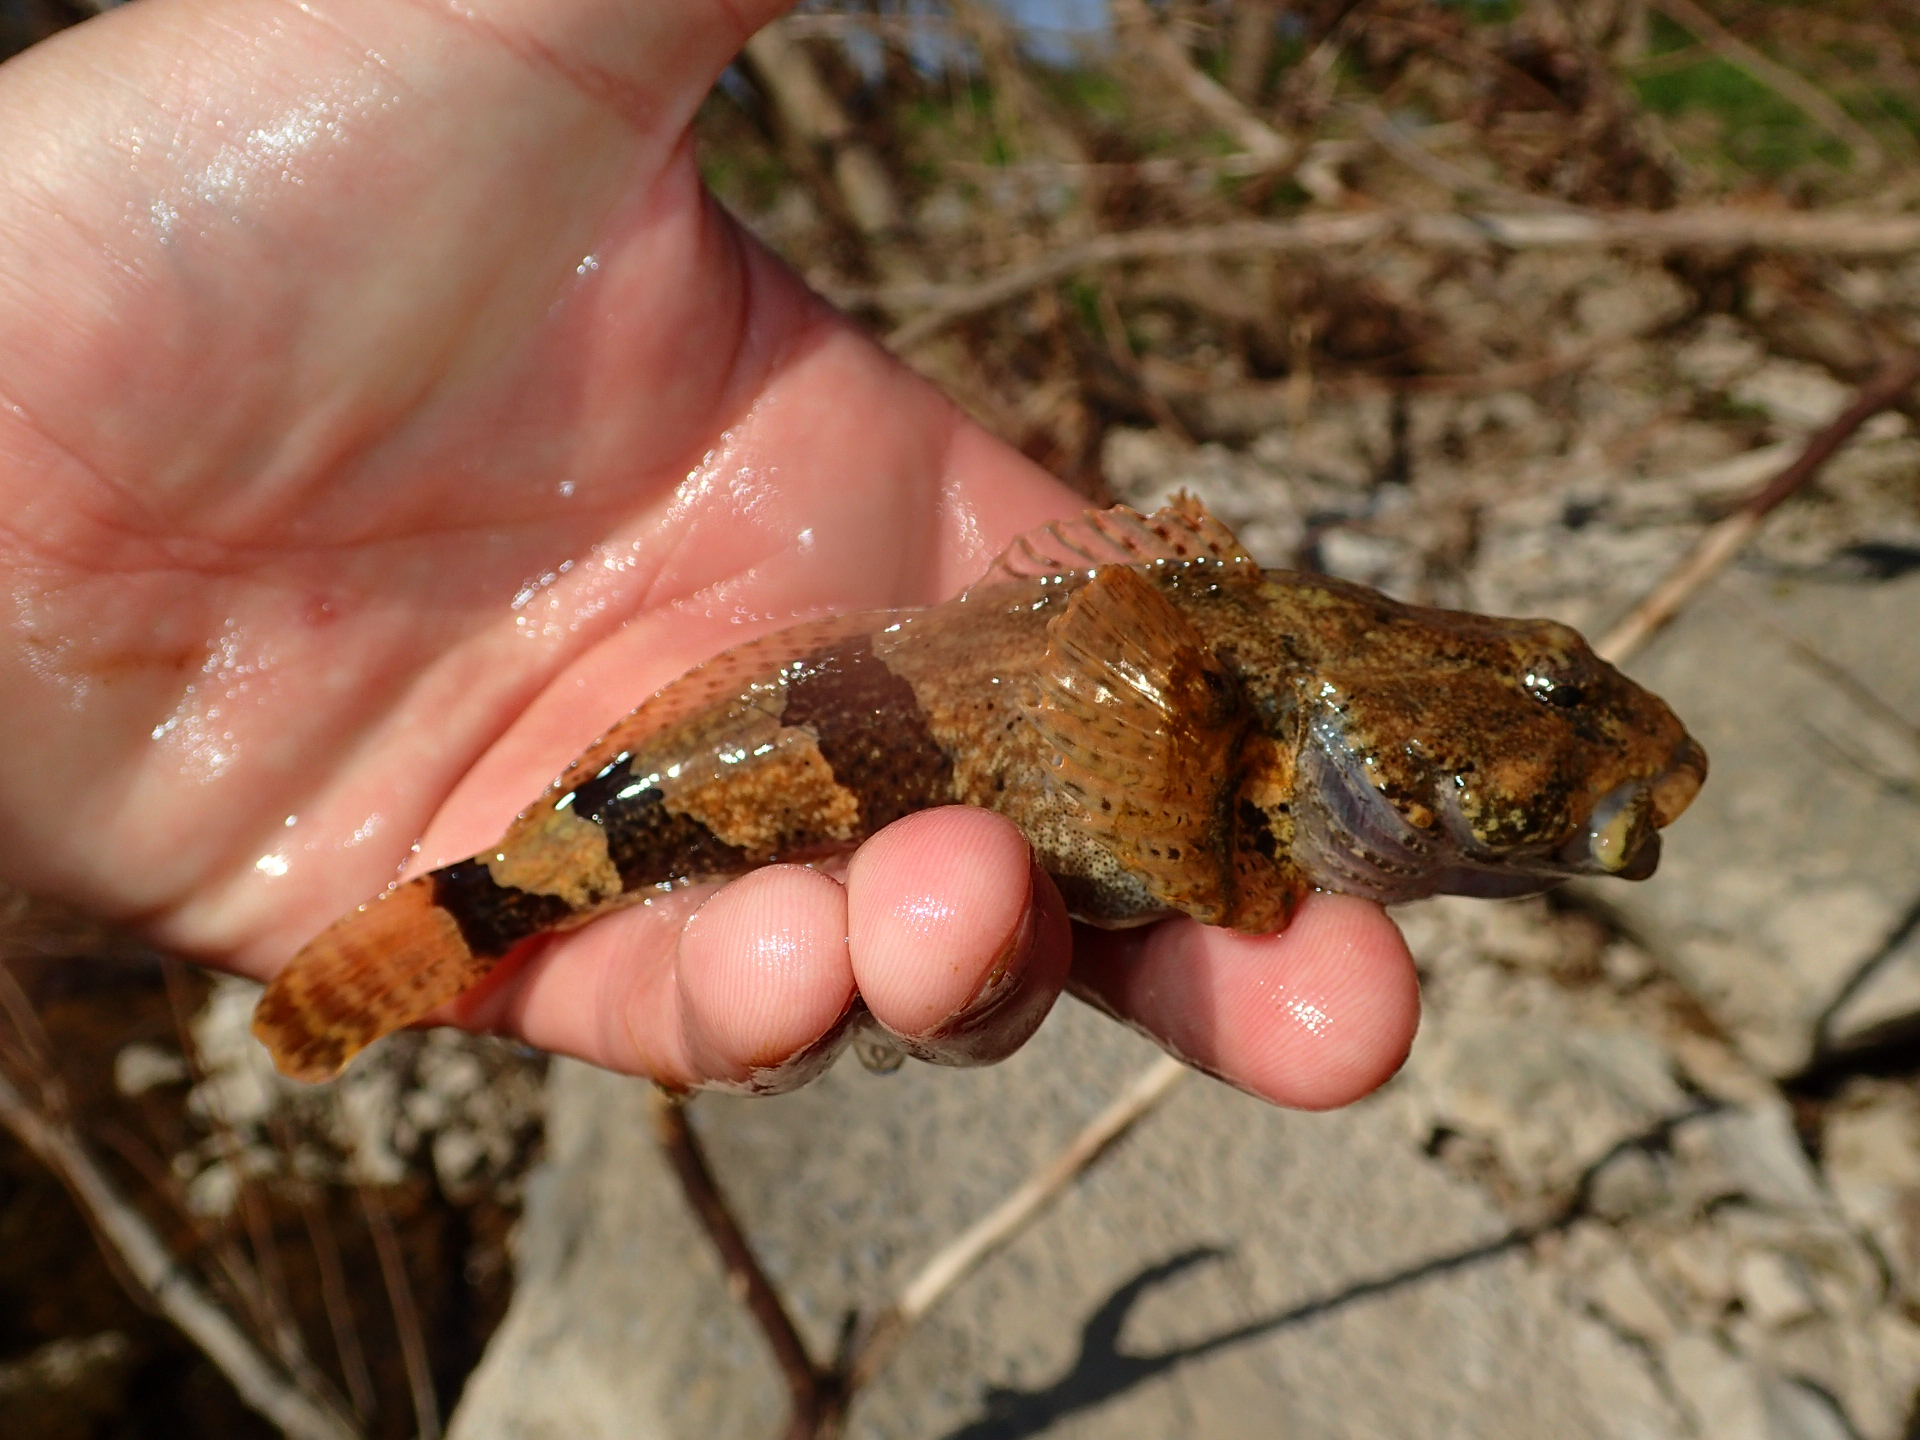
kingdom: Animalia
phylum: Chordata
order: Scorpaeniformes
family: Cottidae
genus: Cottus
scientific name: Cottus carolinae
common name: Banded sculpin
